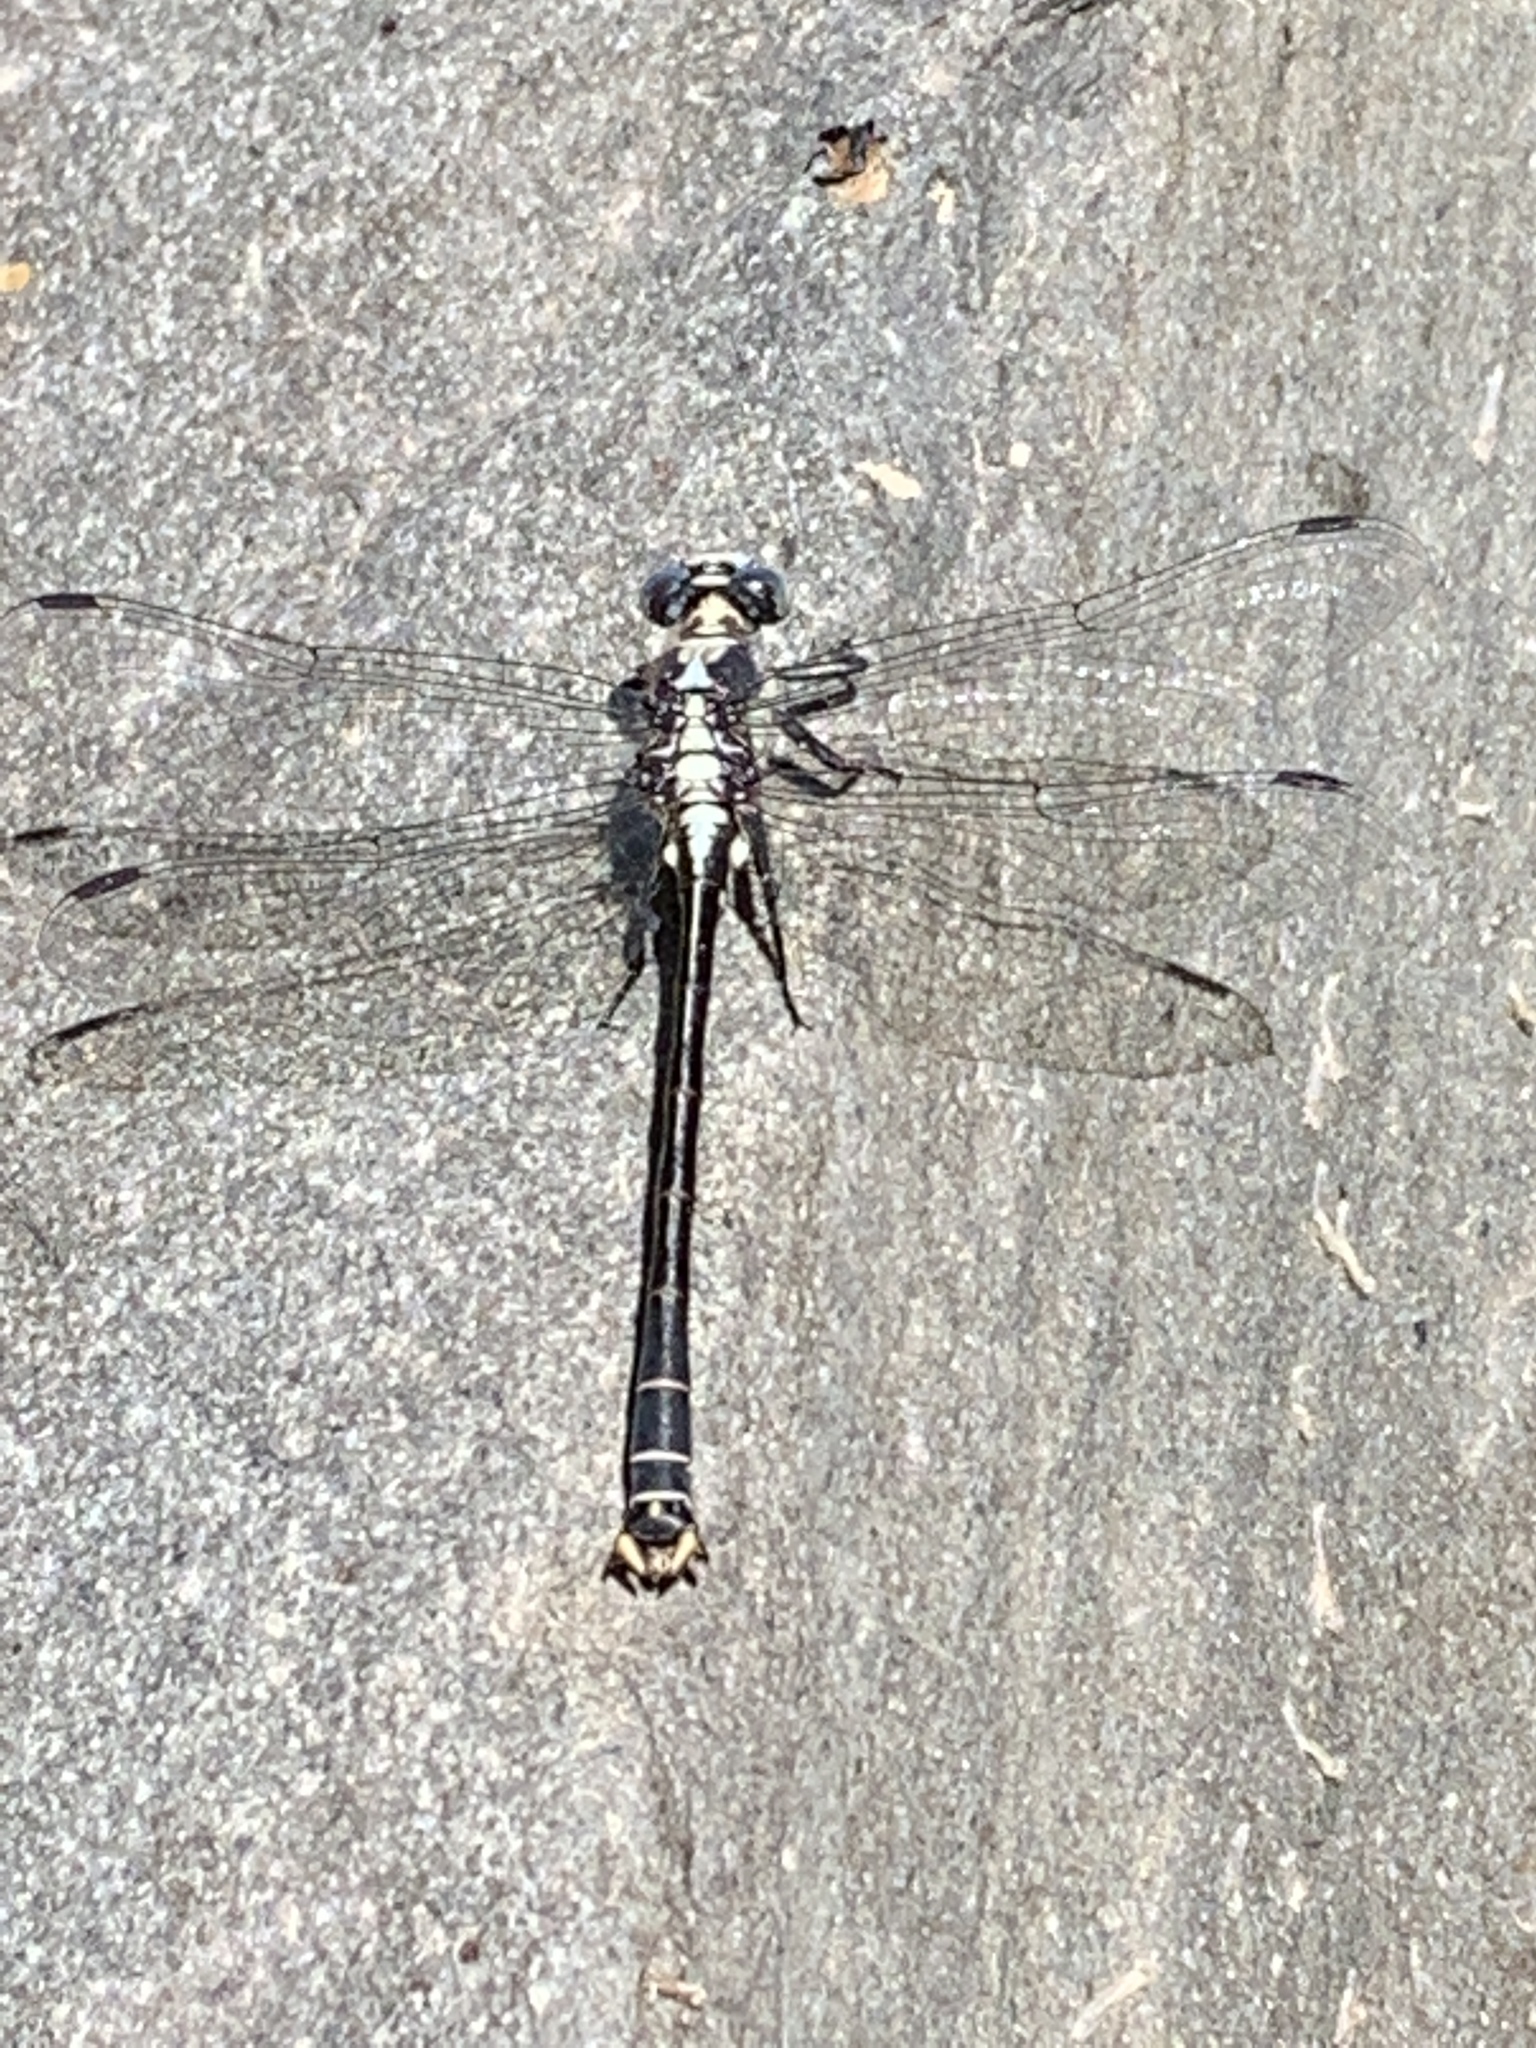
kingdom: Animalia
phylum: Arthropoda
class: Insecta
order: Odonata
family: Gomphidae
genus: Octogomphus
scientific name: Octogomphus specularis
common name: Grappletail
